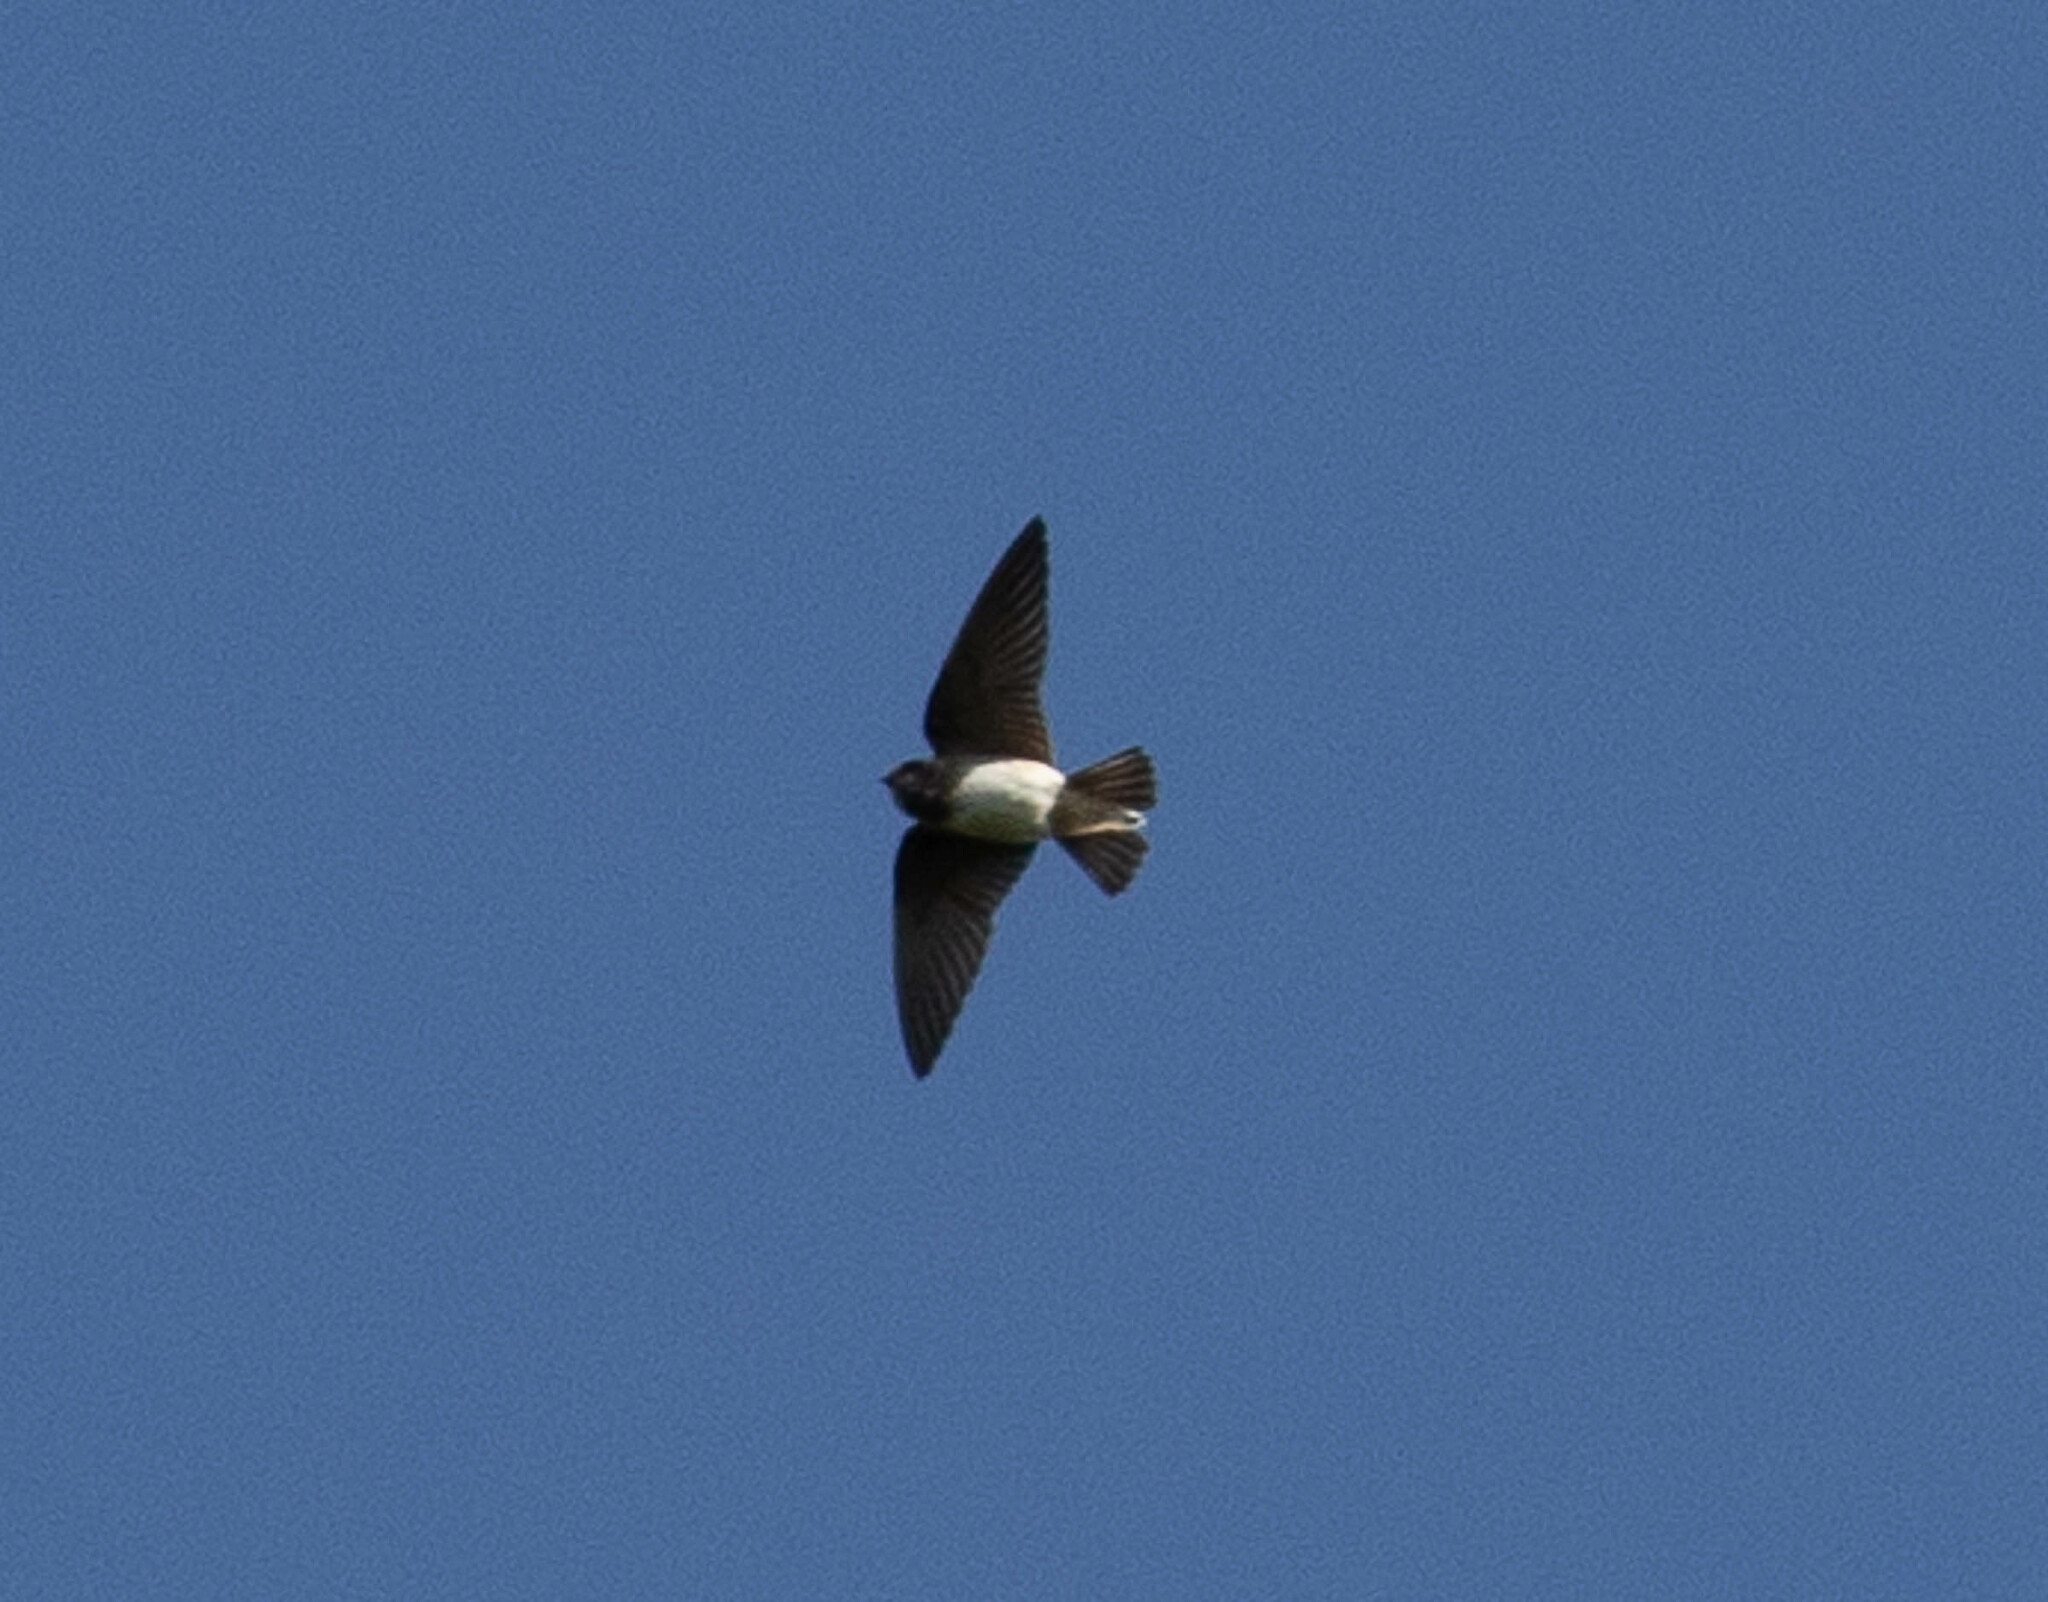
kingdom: Animalia
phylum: Chordata
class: Aves
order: Passeriformes
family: Hirundinidae
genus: Petrochelidon
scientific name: Petrochelidon pyrrhonota
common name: American cliff swallow
